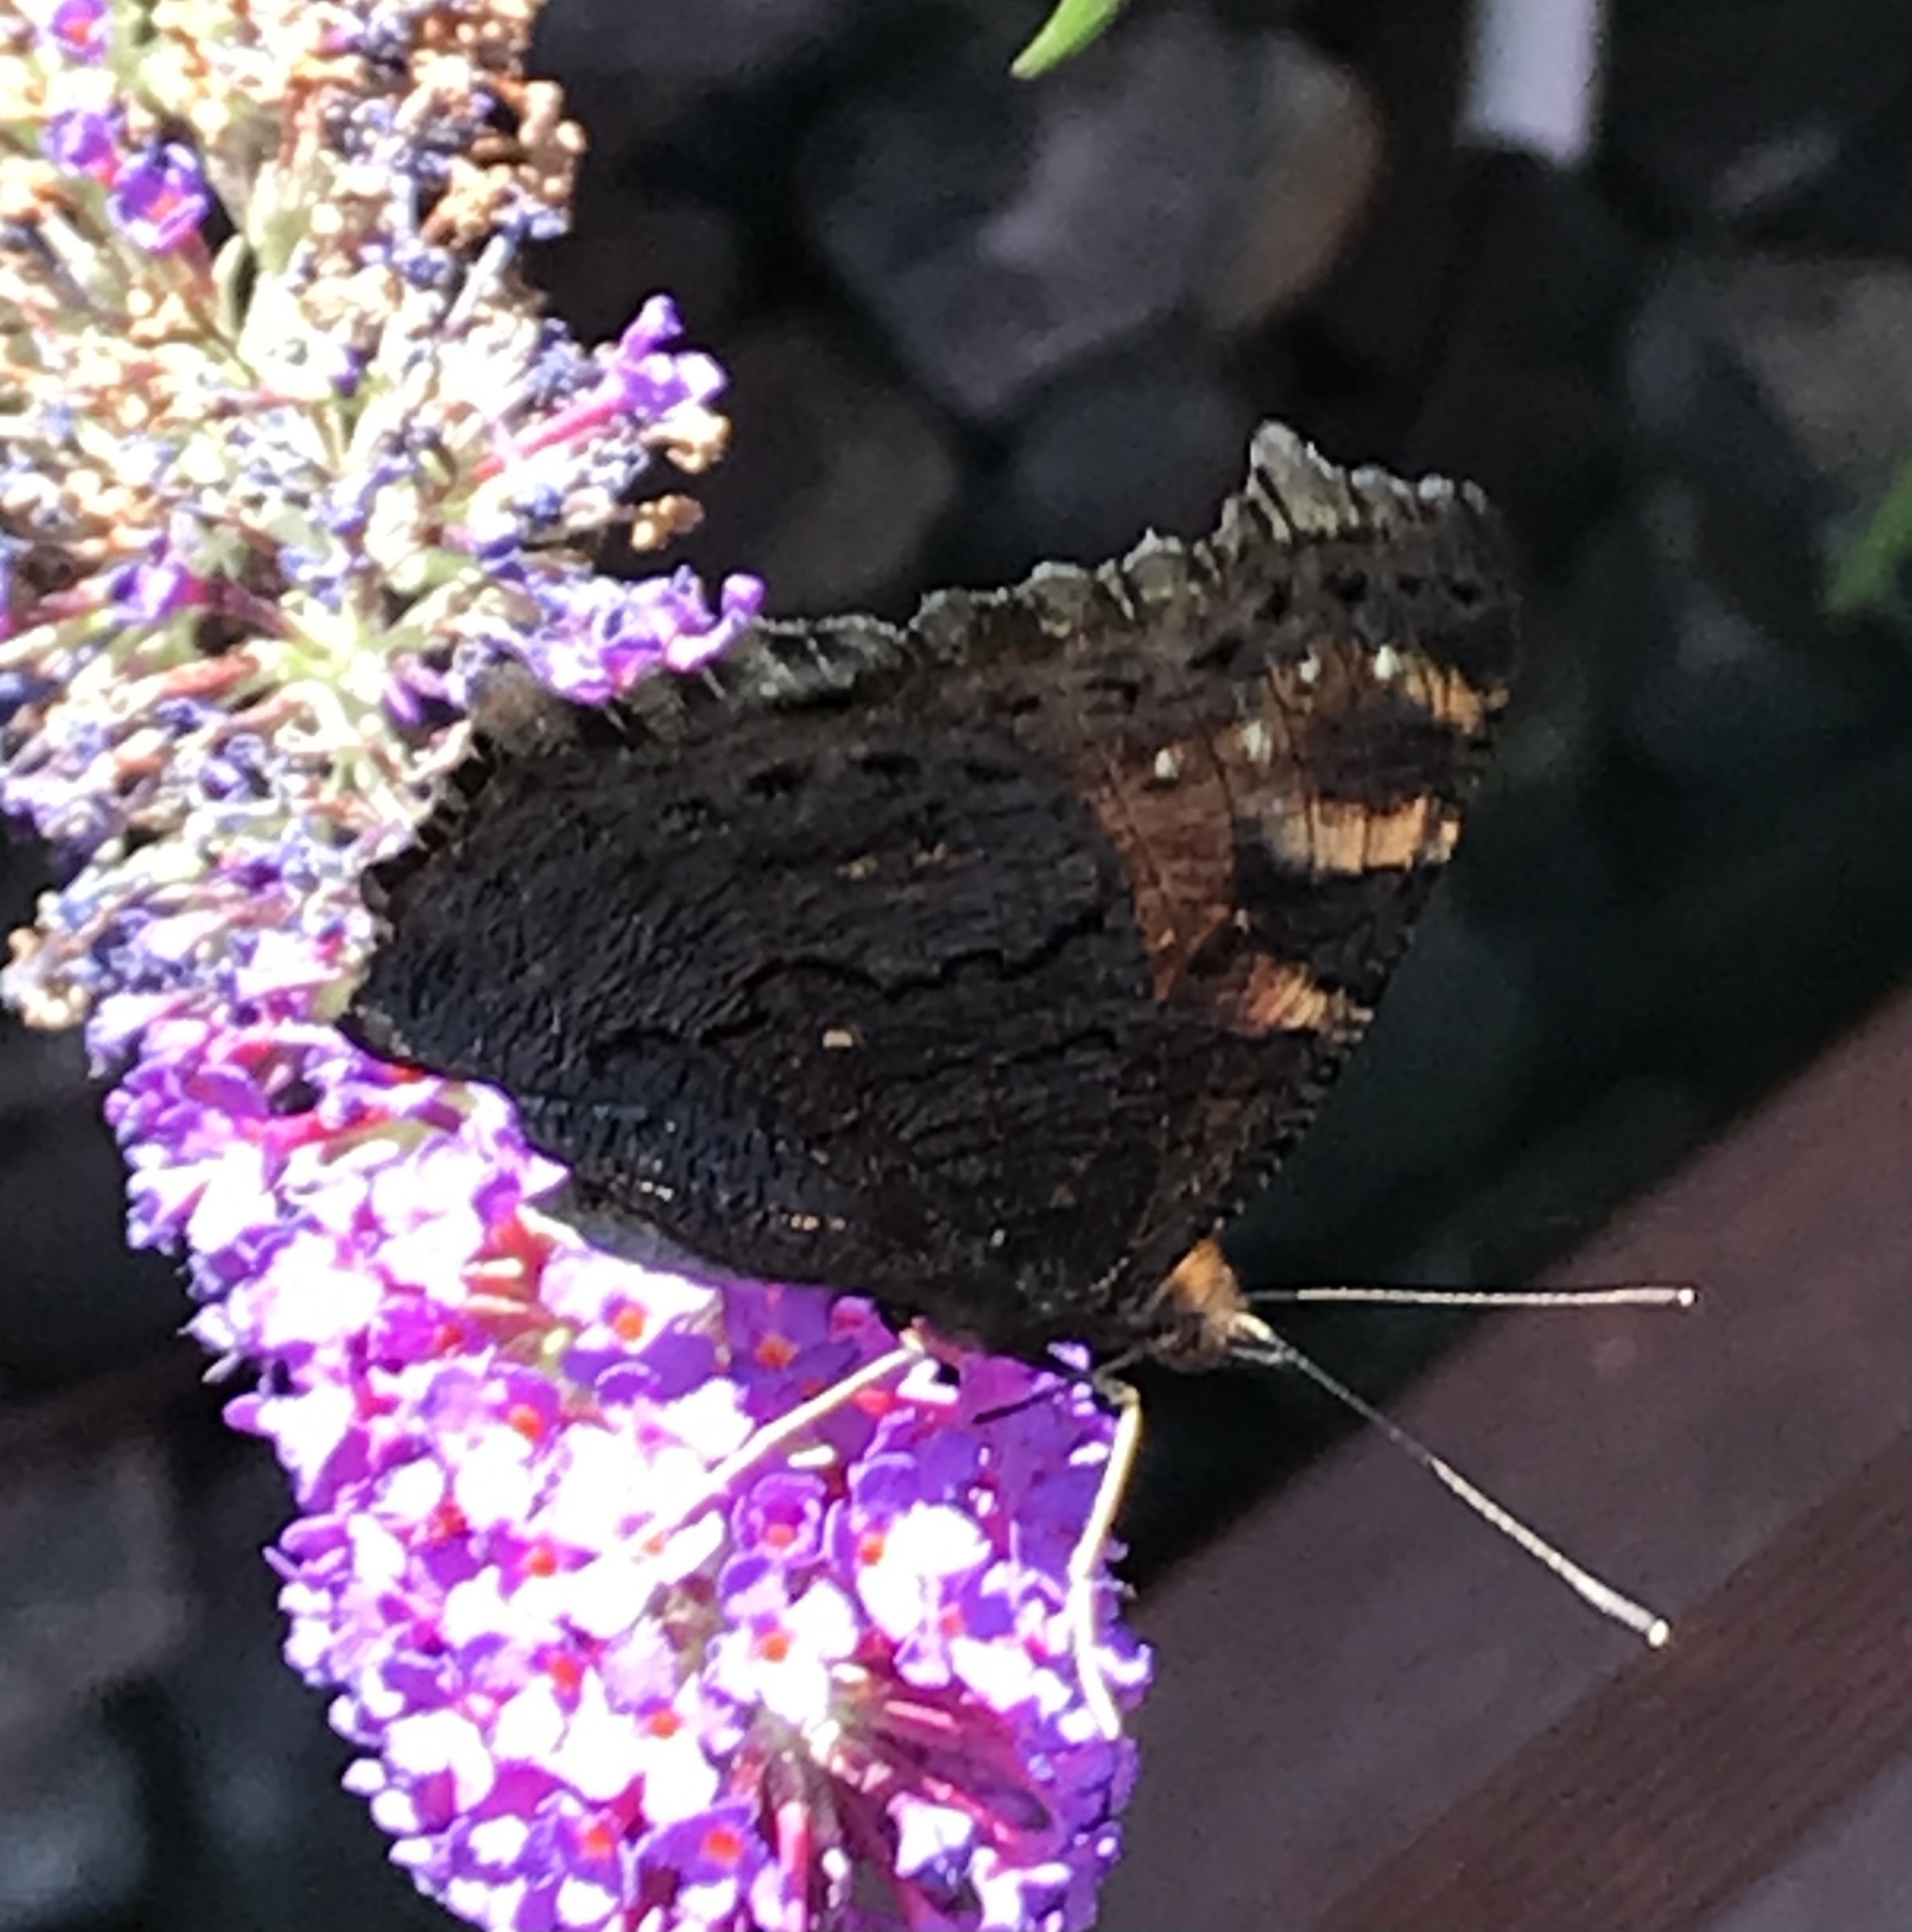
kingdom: Animalia
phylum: Arthropoda
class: Insecta
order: Lepidoptera
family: Nymphalidae
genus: Aglais
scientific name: Aglais io
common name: Peacock
